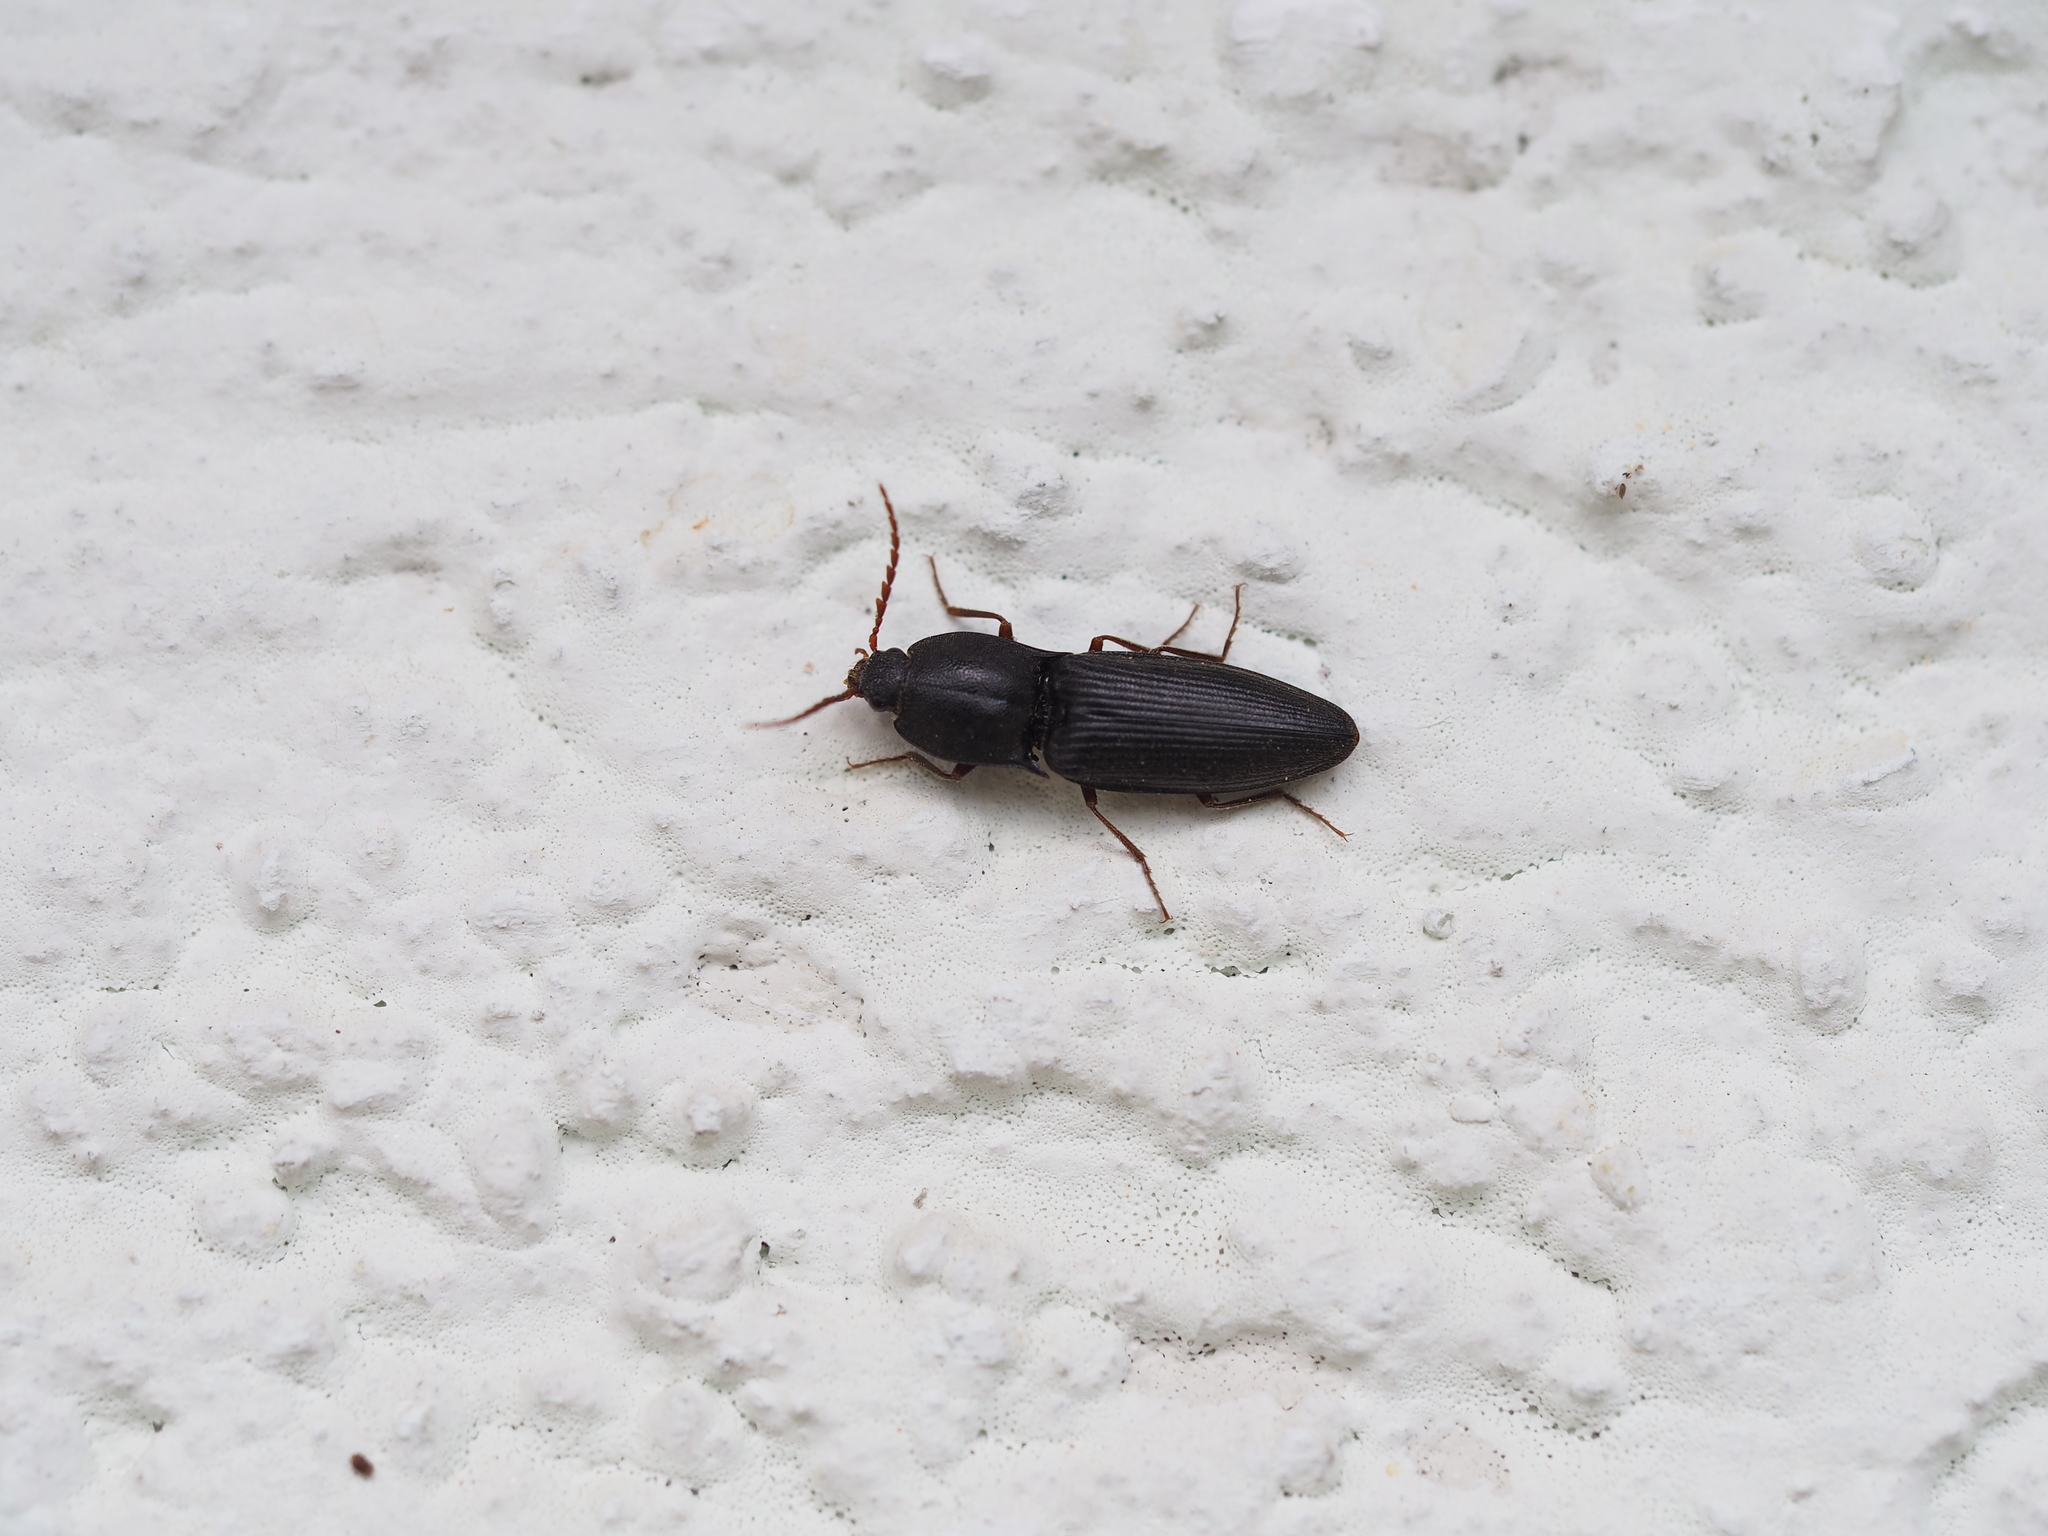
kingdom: Animalia
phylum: Arthropoda
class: Insecta
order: Coleoptera
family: Elateridae
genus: Neopristilophus
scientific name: Neopristilophus insitivus
